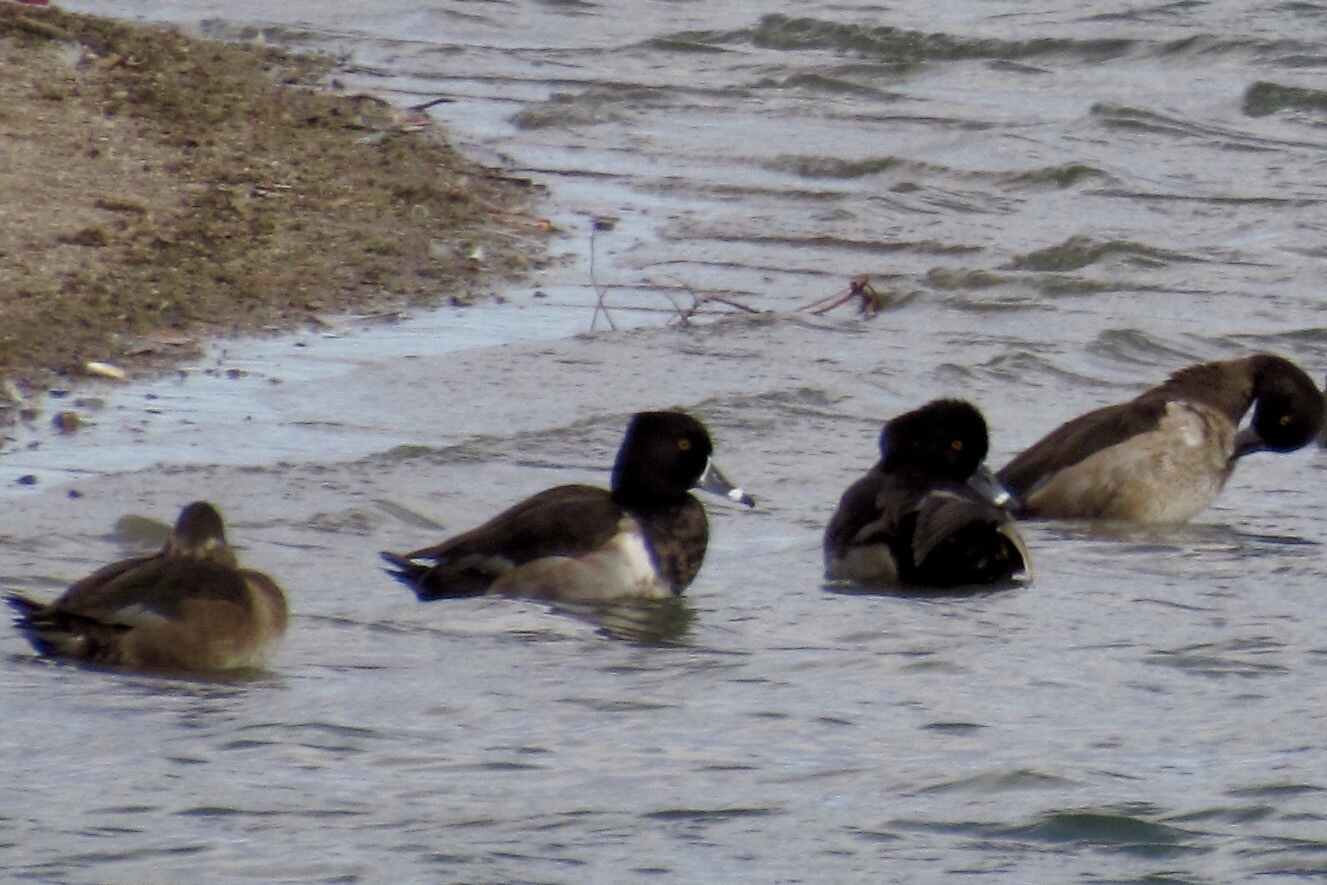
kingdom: Animalia
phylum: Chordata
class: Aves
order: Anseriformes
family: Anatidae
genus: Aythya
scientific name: Aythya collaris
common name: Ring-necked duck
